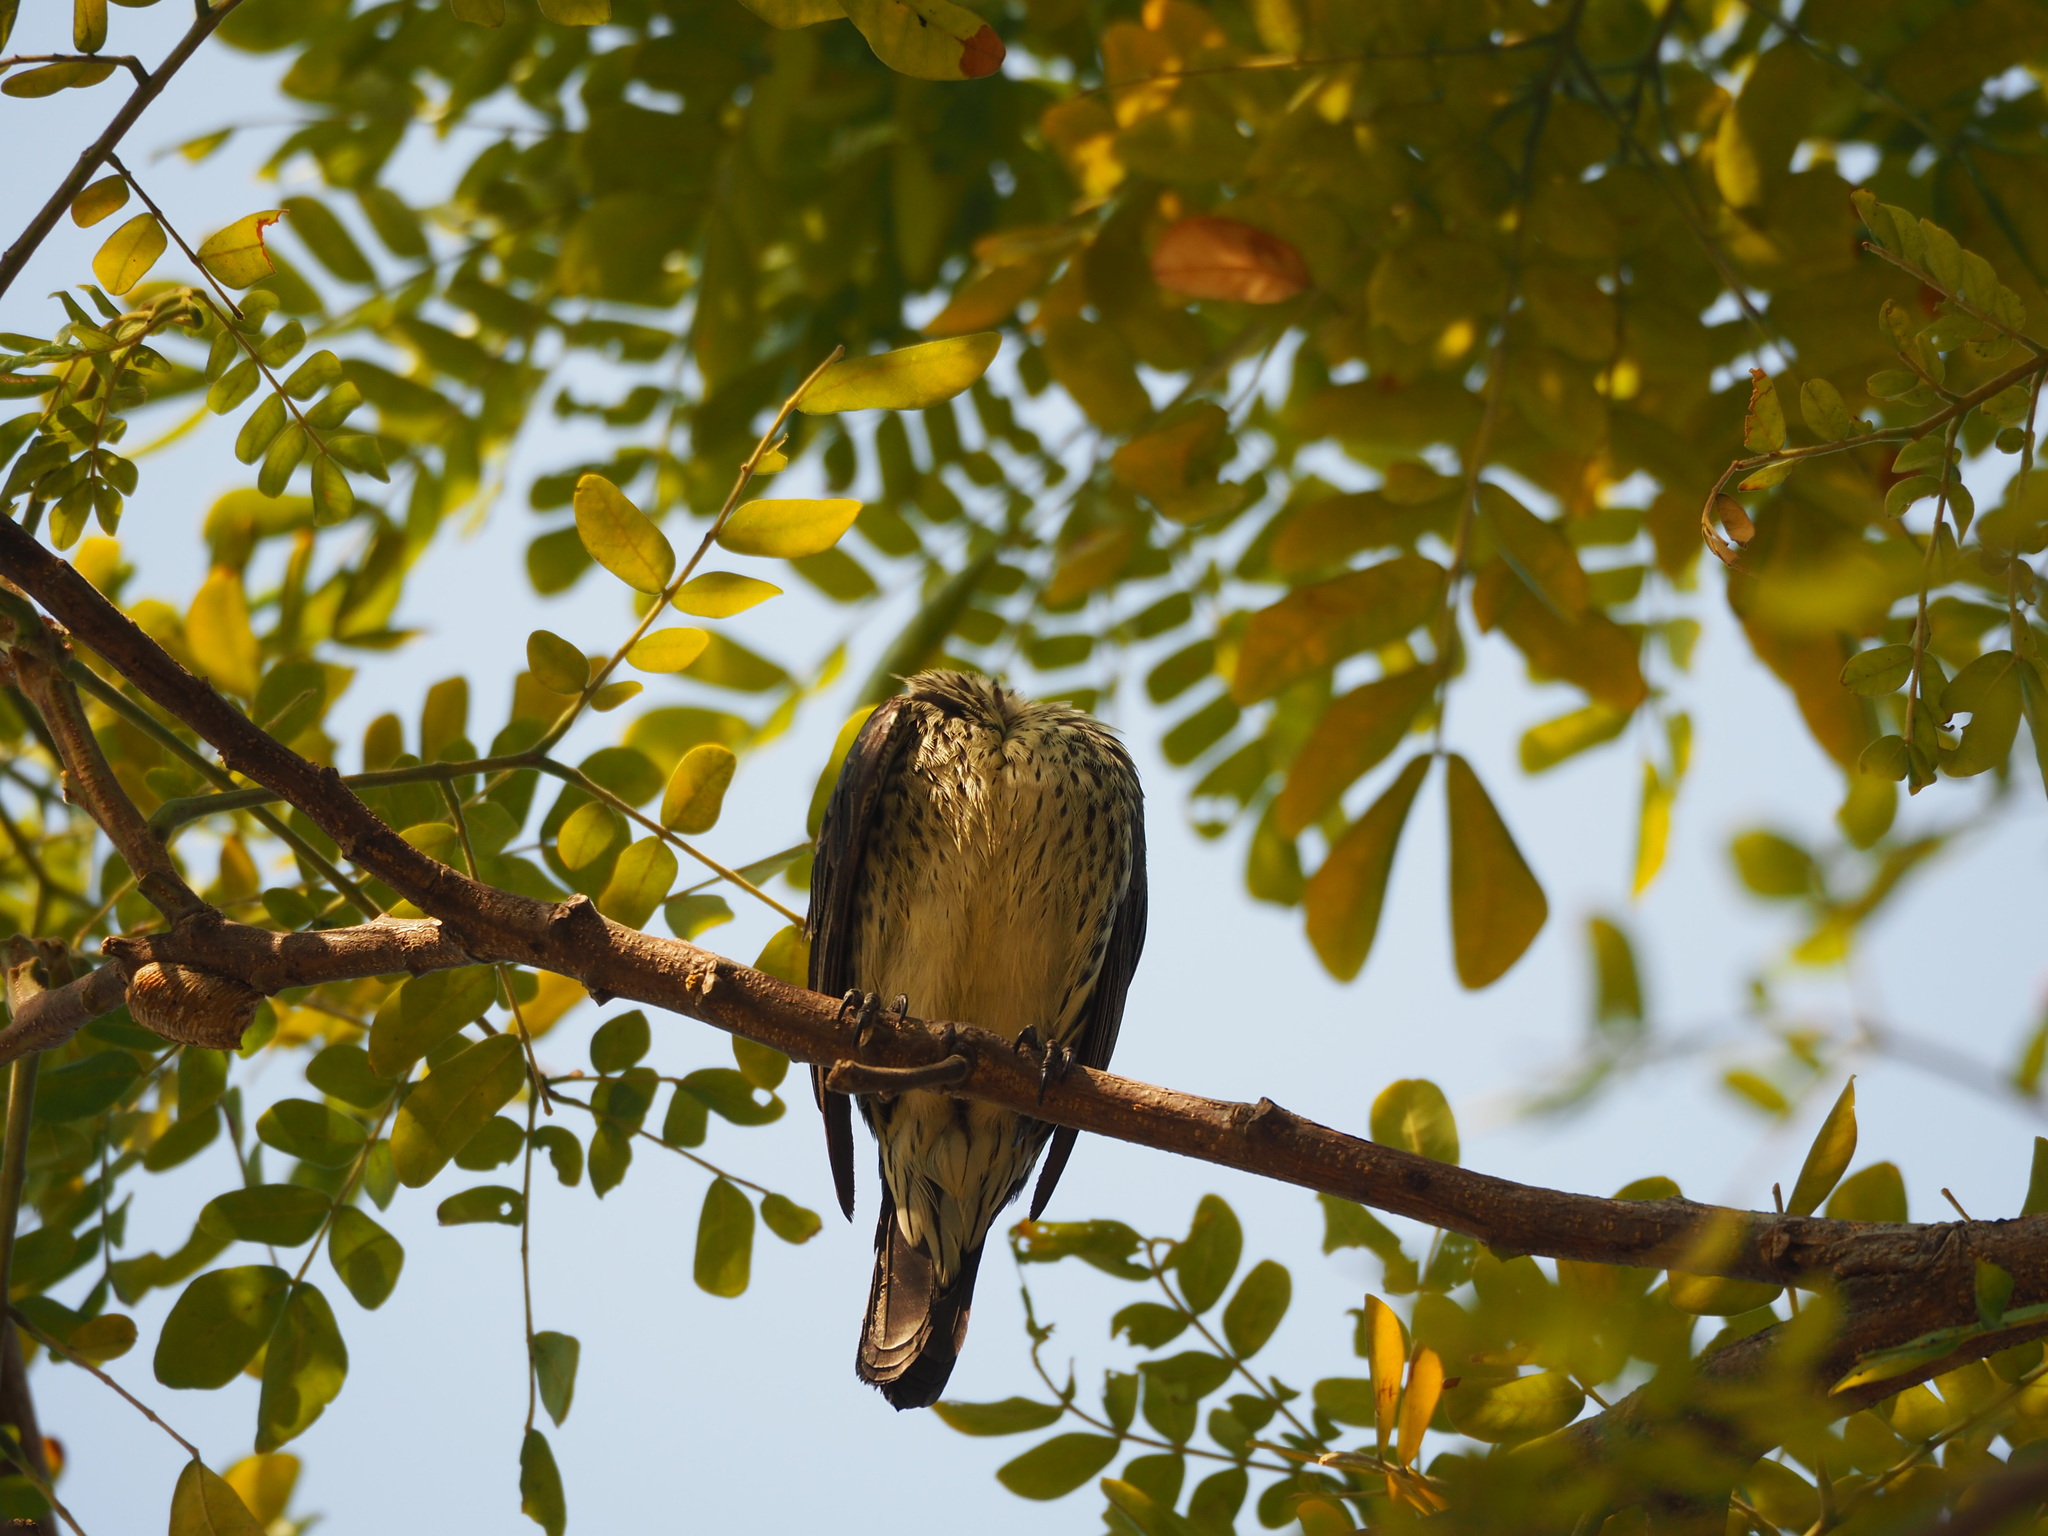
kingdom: Animalia
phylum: Chordata
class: Aves
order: Passeriformes
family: Sturnidae
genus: Aplonis
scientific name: Aplonis panayensis
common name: Asian glossy starling
